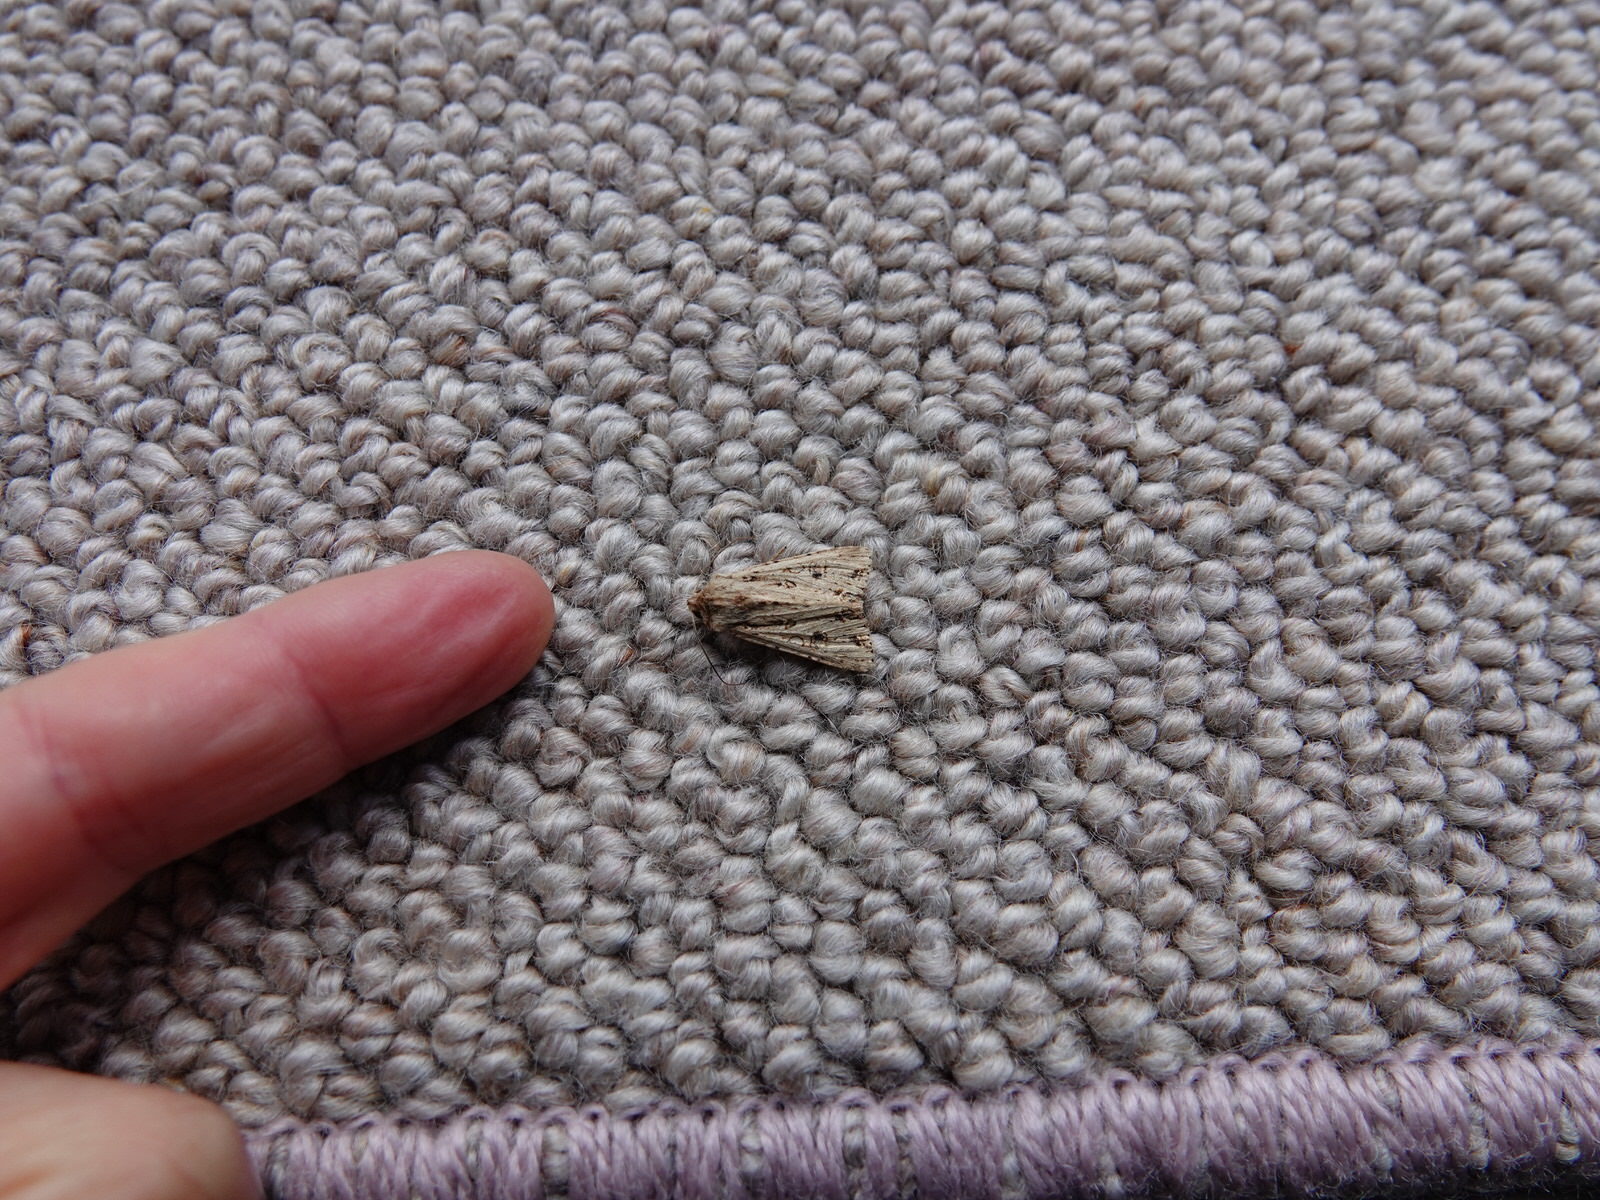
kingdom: Animalia
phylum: Arthropoda
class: Insecta
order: Lepidoptera
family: Noctuidae
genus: Ichneutica
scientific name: Ichneutica lignana
